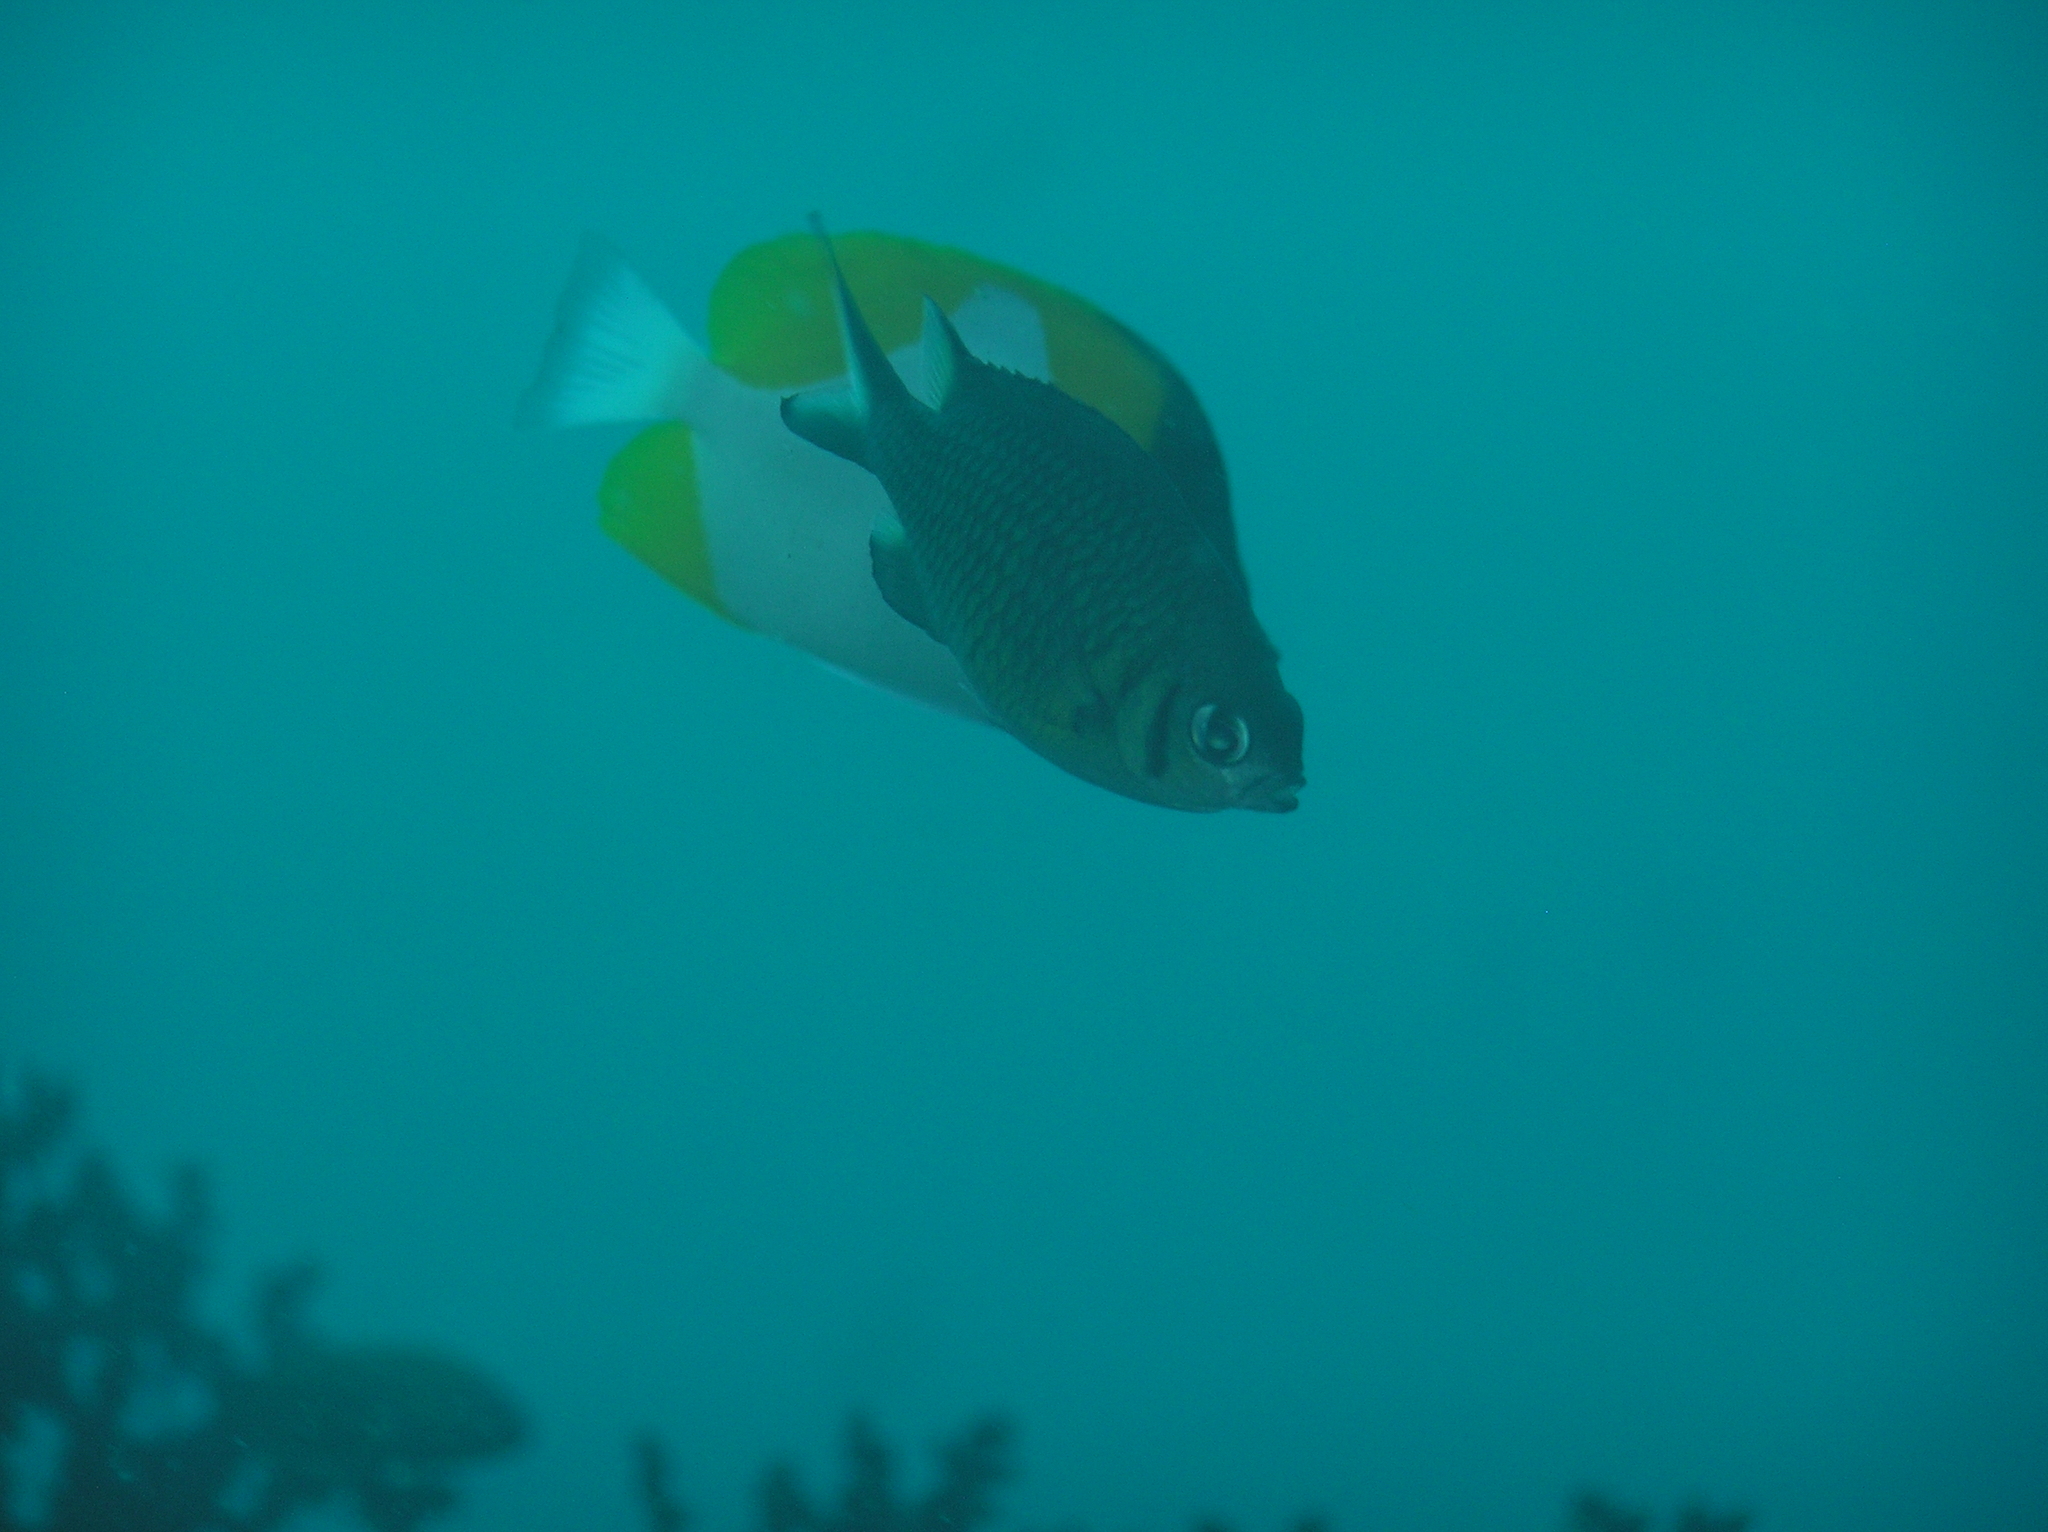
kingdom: Animalia
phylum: Chordata
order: Perciformes
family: Pomacentridae
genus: Chromis
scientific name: Chromis weberi
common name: Weber's chromis
